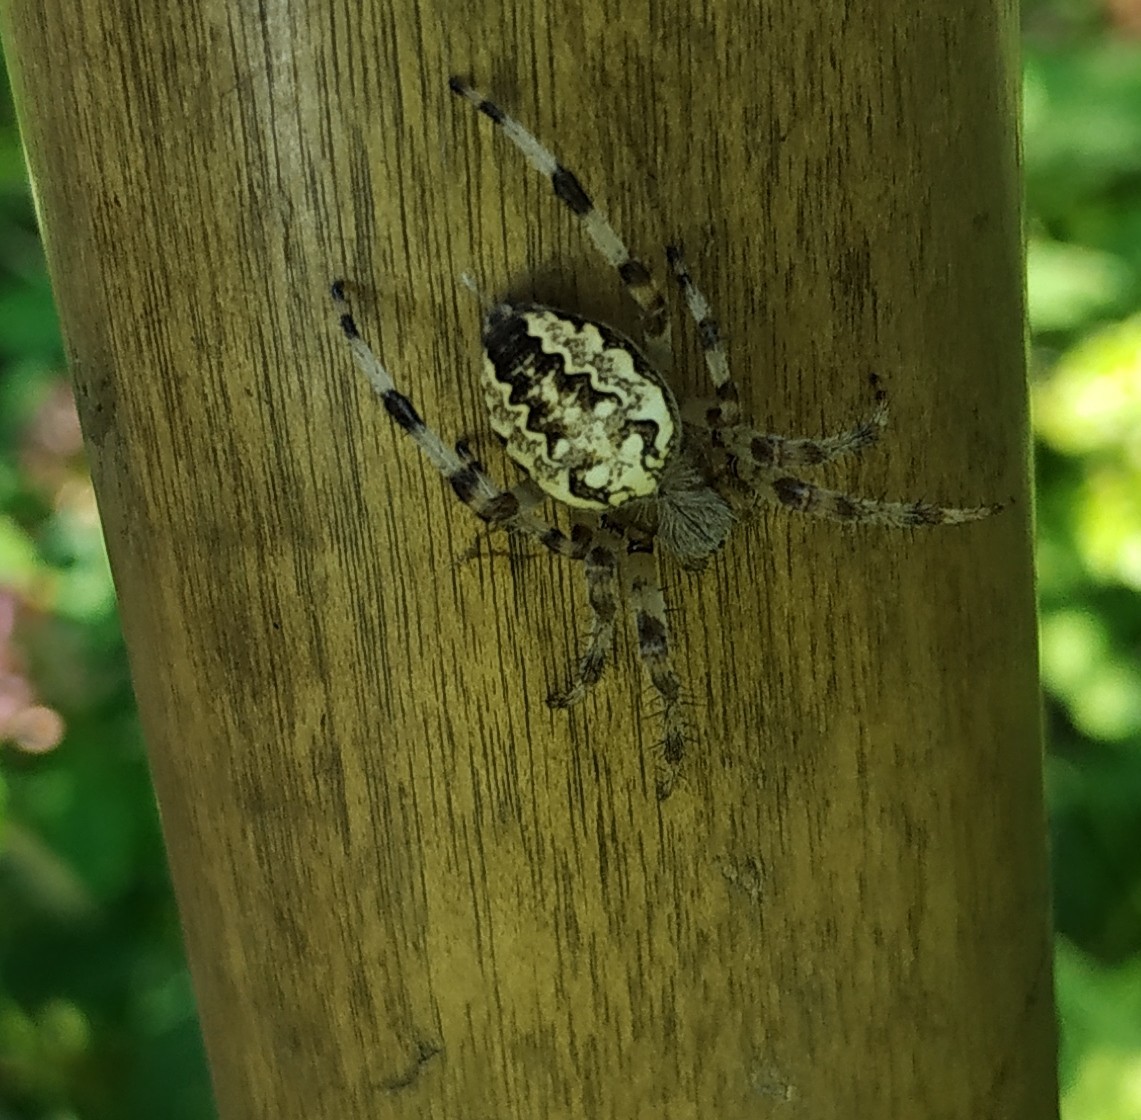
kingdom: Animalia
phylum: Arthropoda
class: Arachnida
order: Araneae
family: Araneidae
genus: Araneus
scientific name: Araneus marmoreus
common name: Marbled orbweaver
